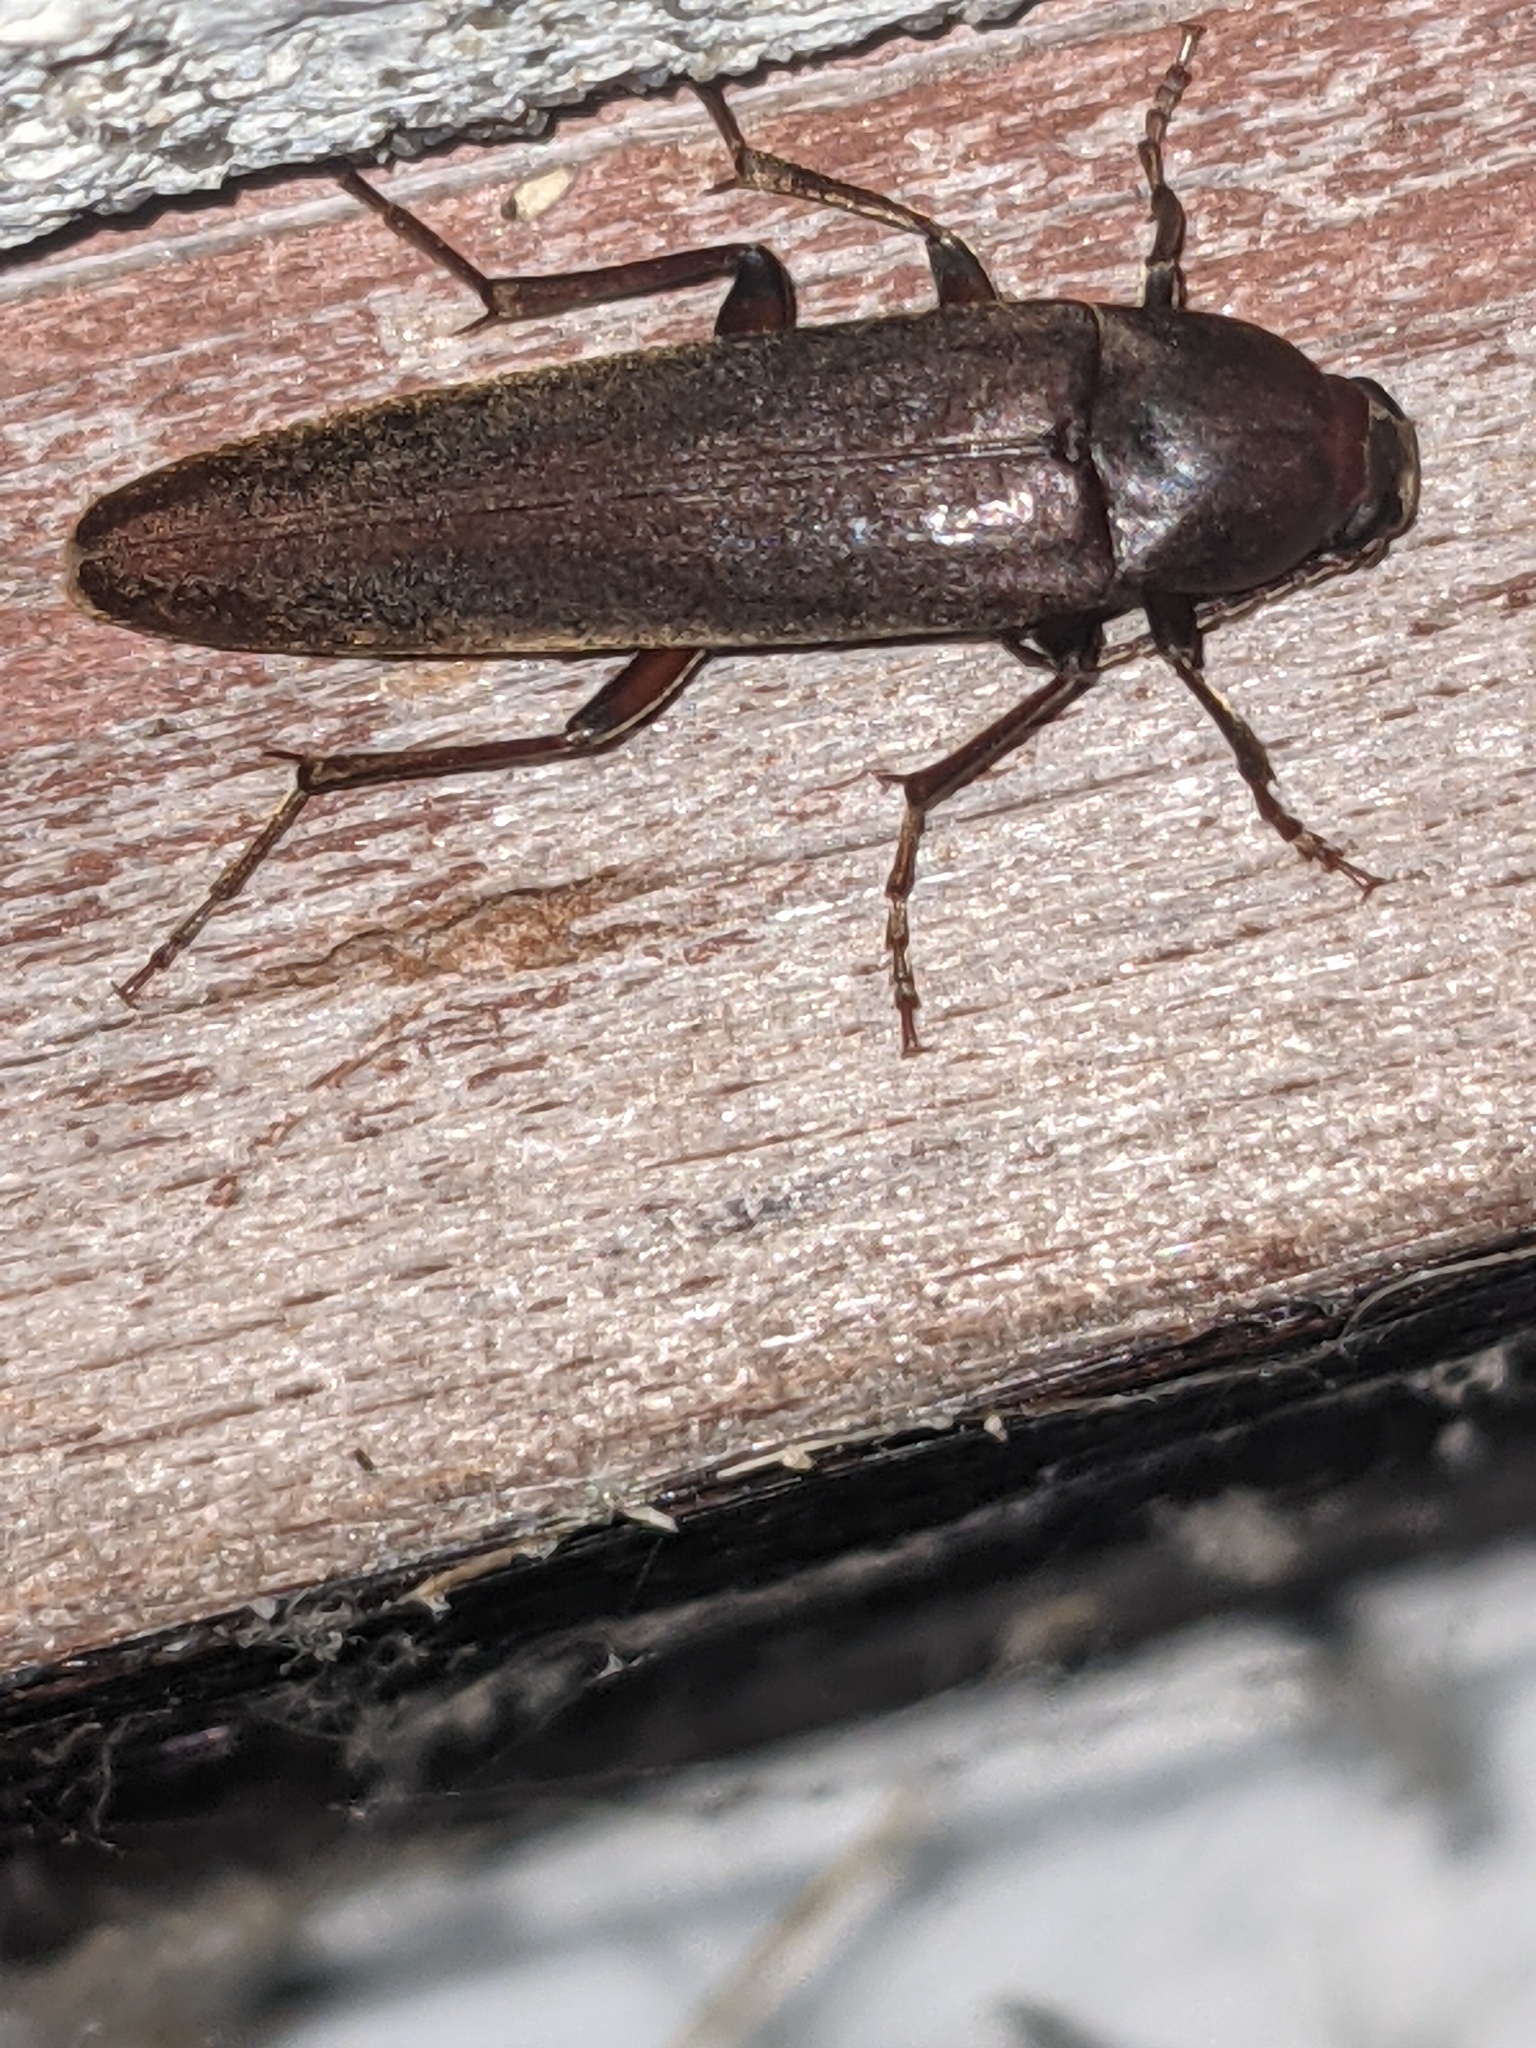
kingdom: Animalia
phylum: Arthropoda
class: Insecta
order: Coleoptera
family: Melandryidae
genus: Enchodes
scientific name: Enchodes sericea
